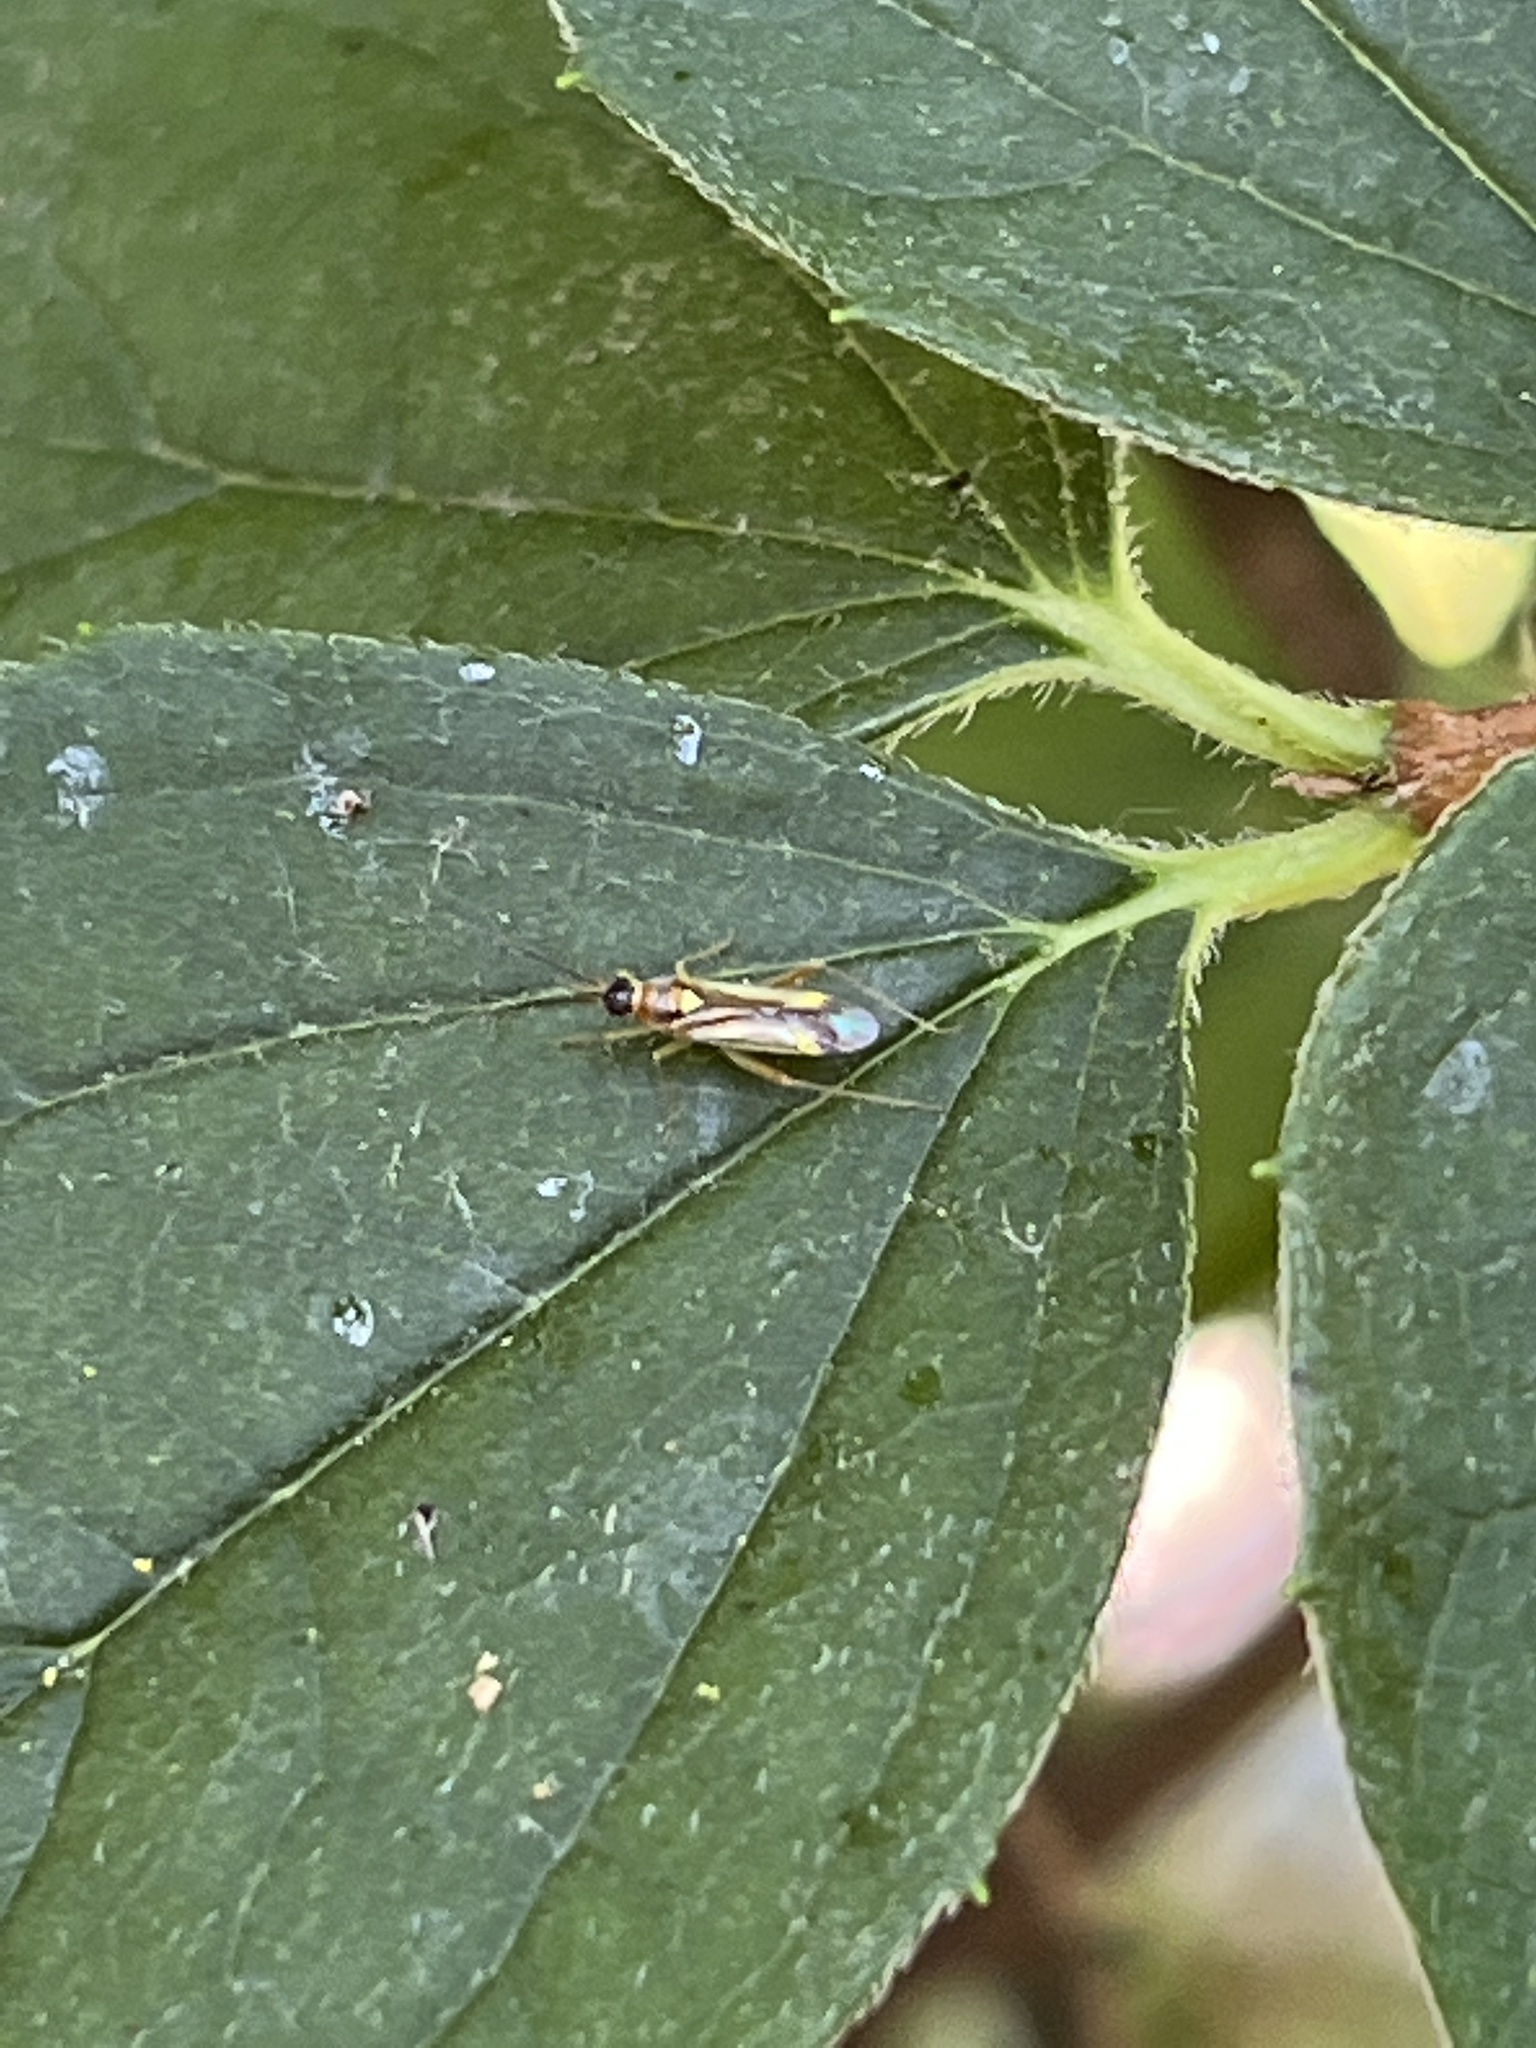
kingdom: Animalia
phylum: Arthropoda
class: Insecta
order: Hemiptera
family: Miridae
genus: Campyloneura
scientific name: Campyloneura virgula
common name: Predatory bug
